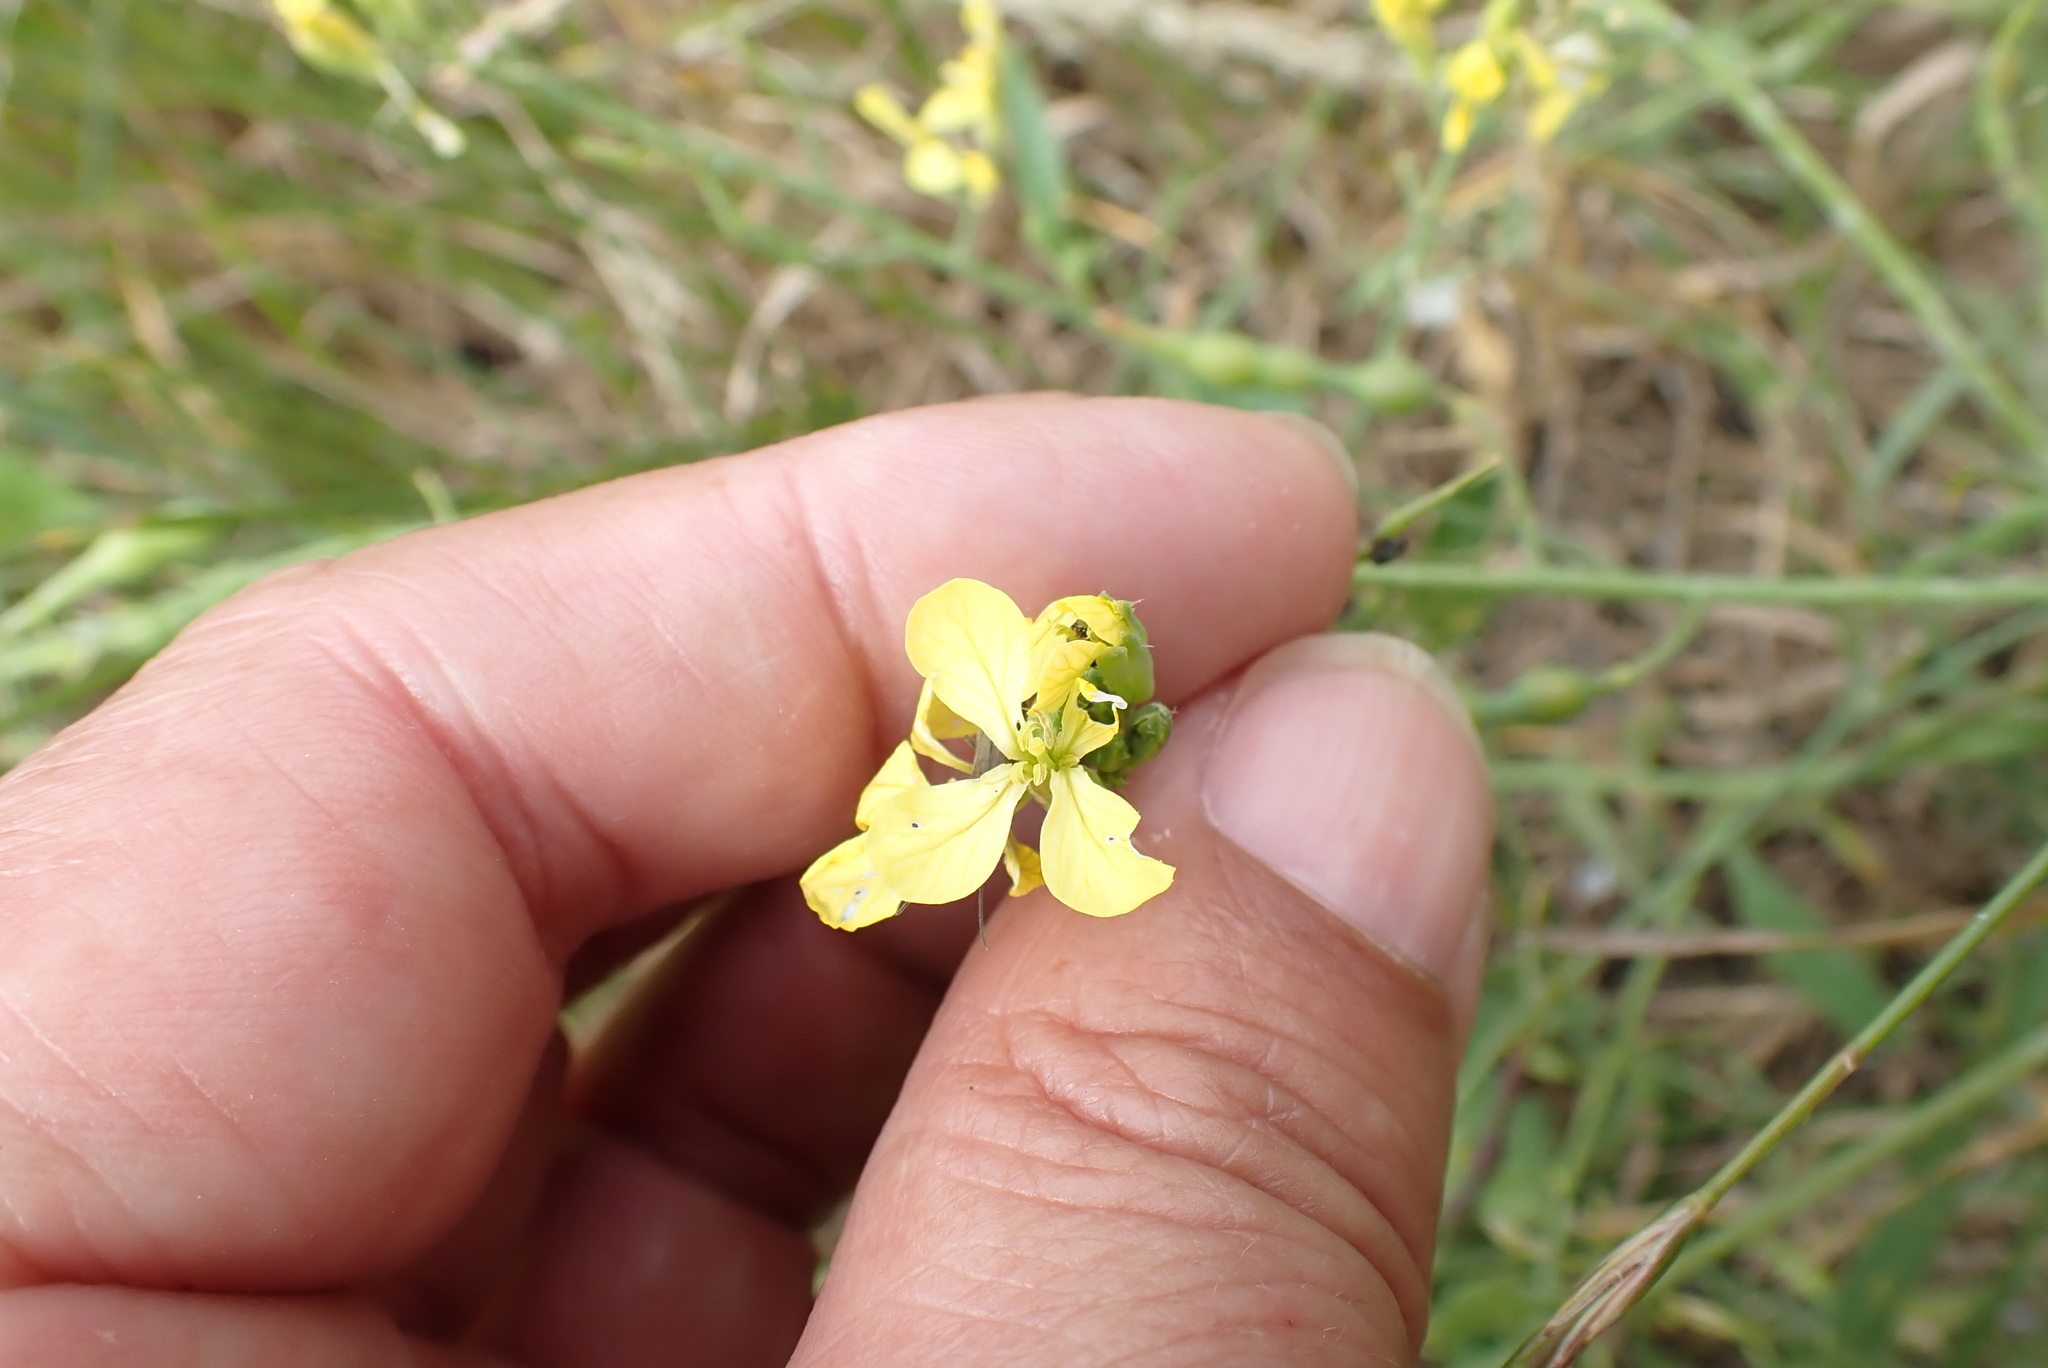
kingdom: Plantae
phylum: Tracheophyta
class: Magnoliopsida
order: Brassicales
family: Brassicaceae
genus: Raphanus
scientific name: Raphanus raphanistrum
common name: Wild radish
